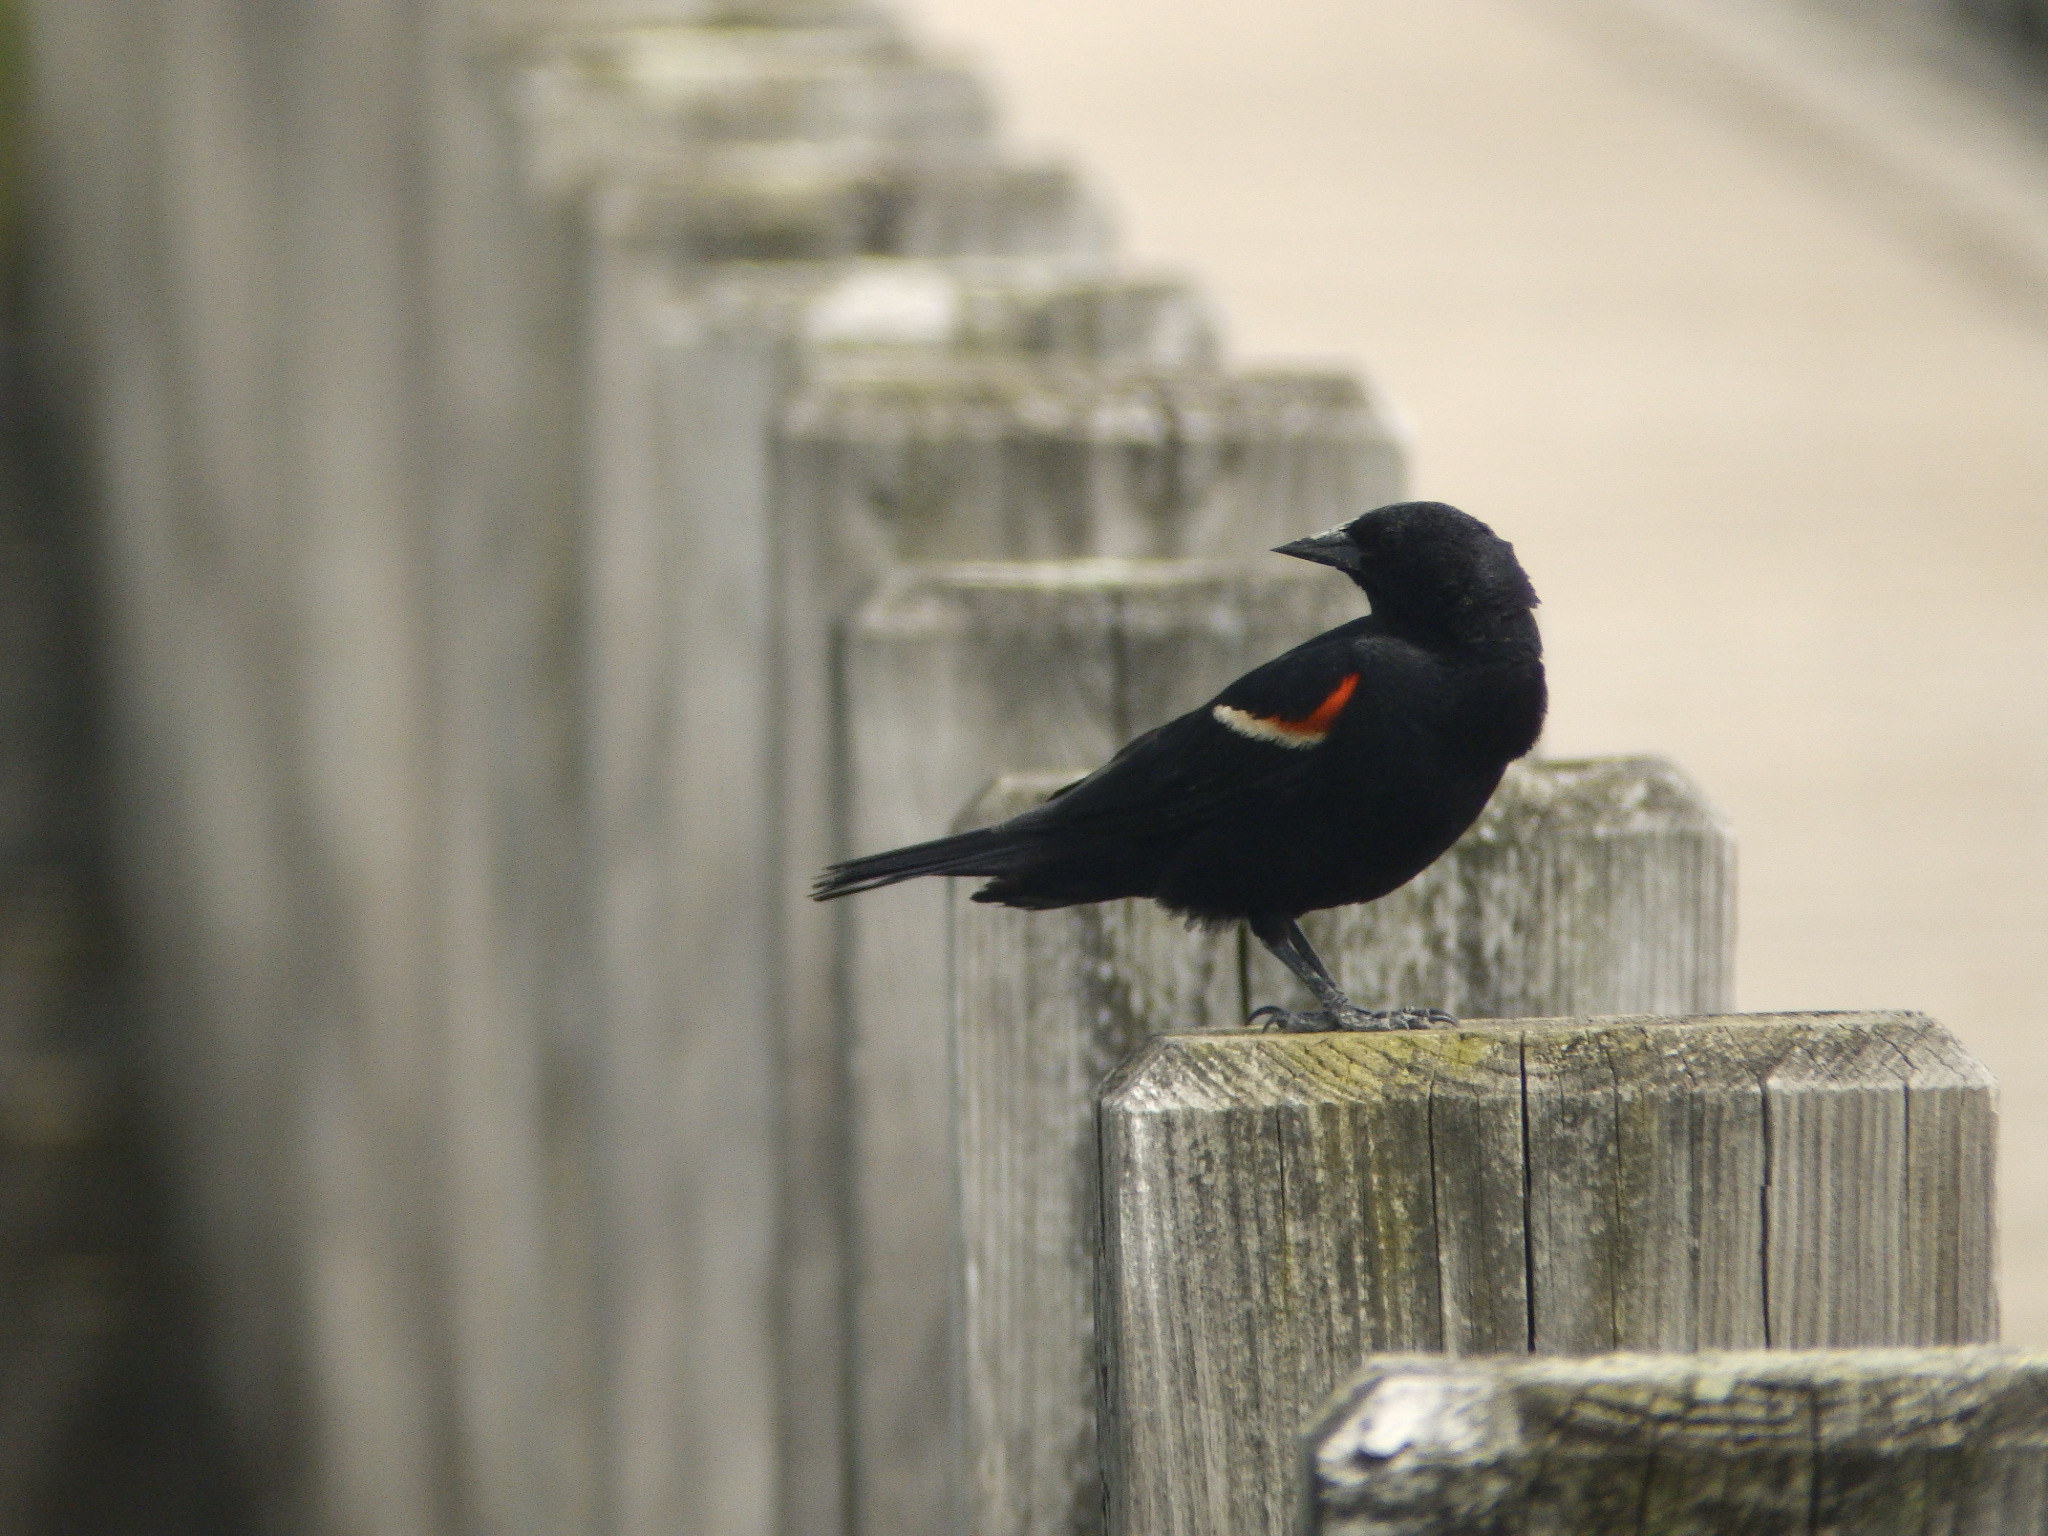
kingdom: Animalia
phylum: Chordata
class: Aves
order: Passeriformes
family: Icteridae
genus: Agelaius
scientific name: Agelaius phoeniceus
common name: Red-winged blackbird
